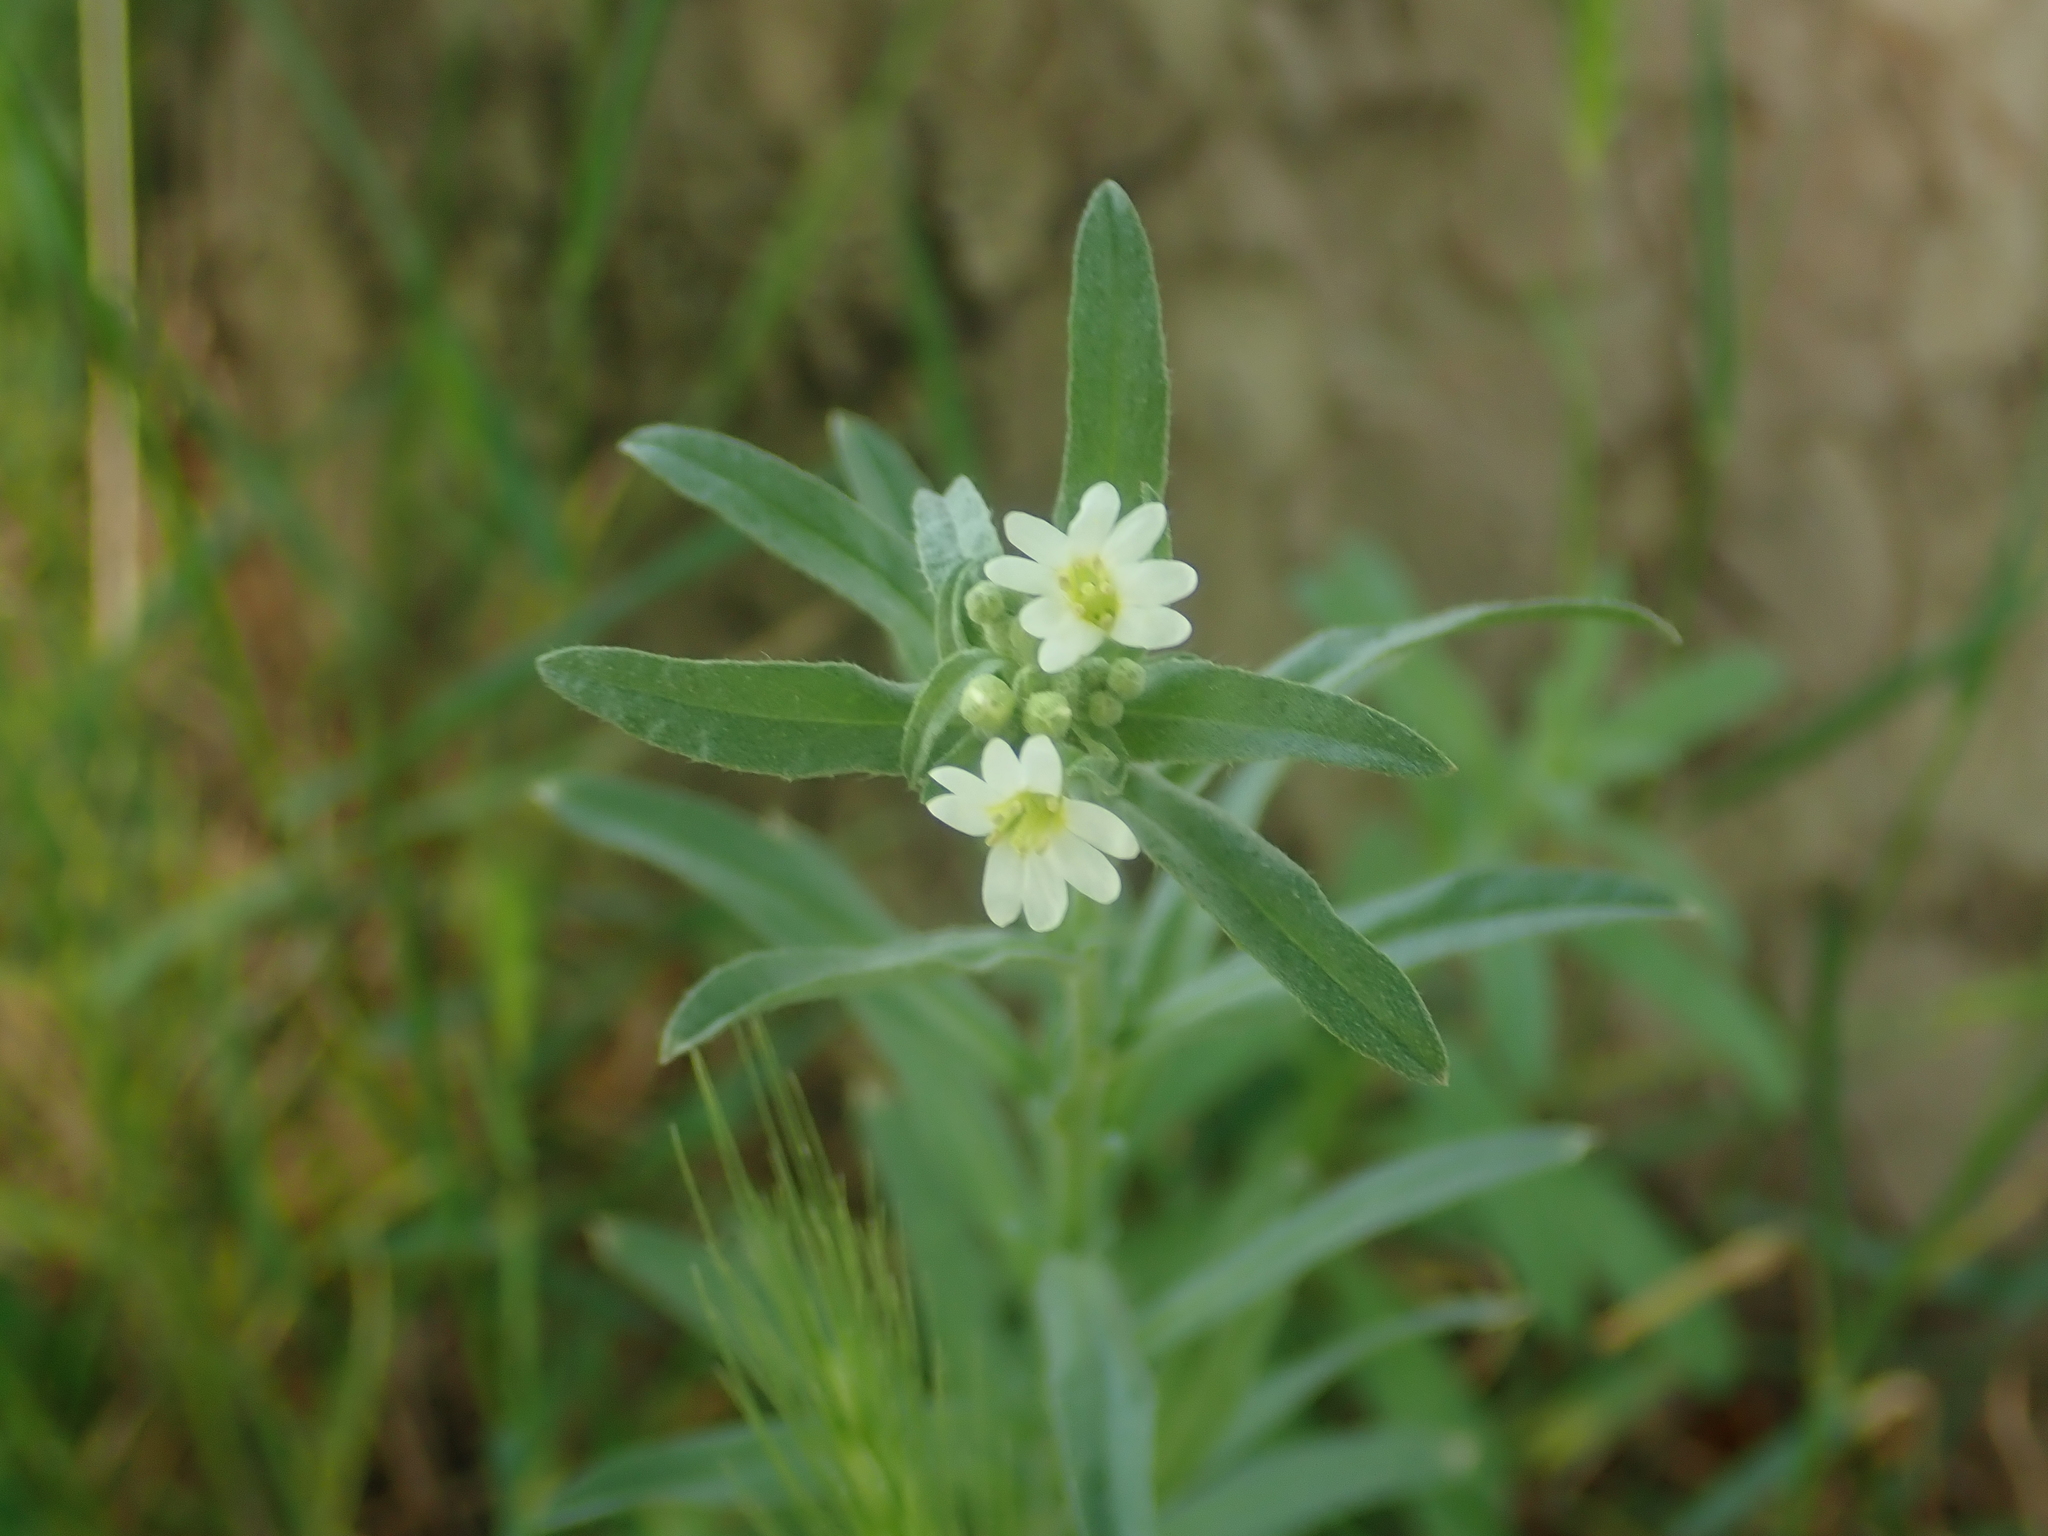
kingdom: Plantae
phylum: Tracheophyta
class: Magnoliopsida
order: Brassicales
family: Brassicaceae
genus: Berteroa
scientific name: Berteroa incana
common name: Hoary alison
